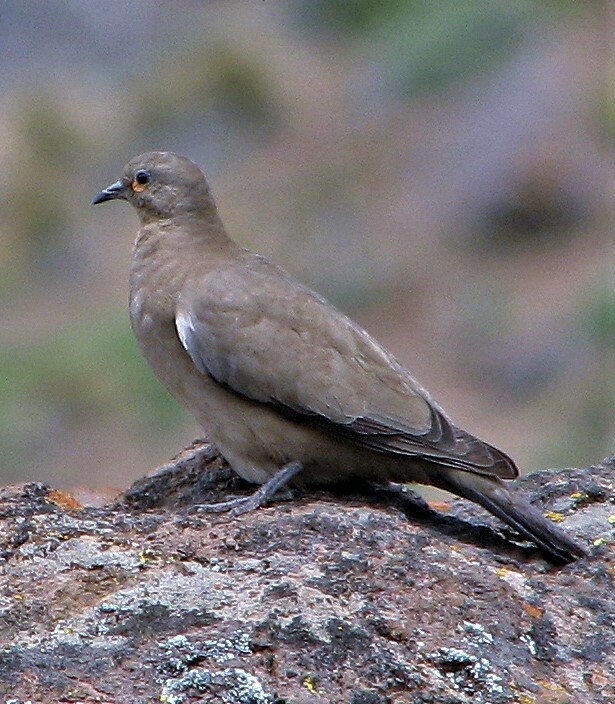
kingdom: Animalia
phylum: Chordata
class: Aves
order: Columbiformes
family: Columbidae
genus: Metriopelia
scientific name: Metriopelia melanoptera
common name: Black-winged ground dove
